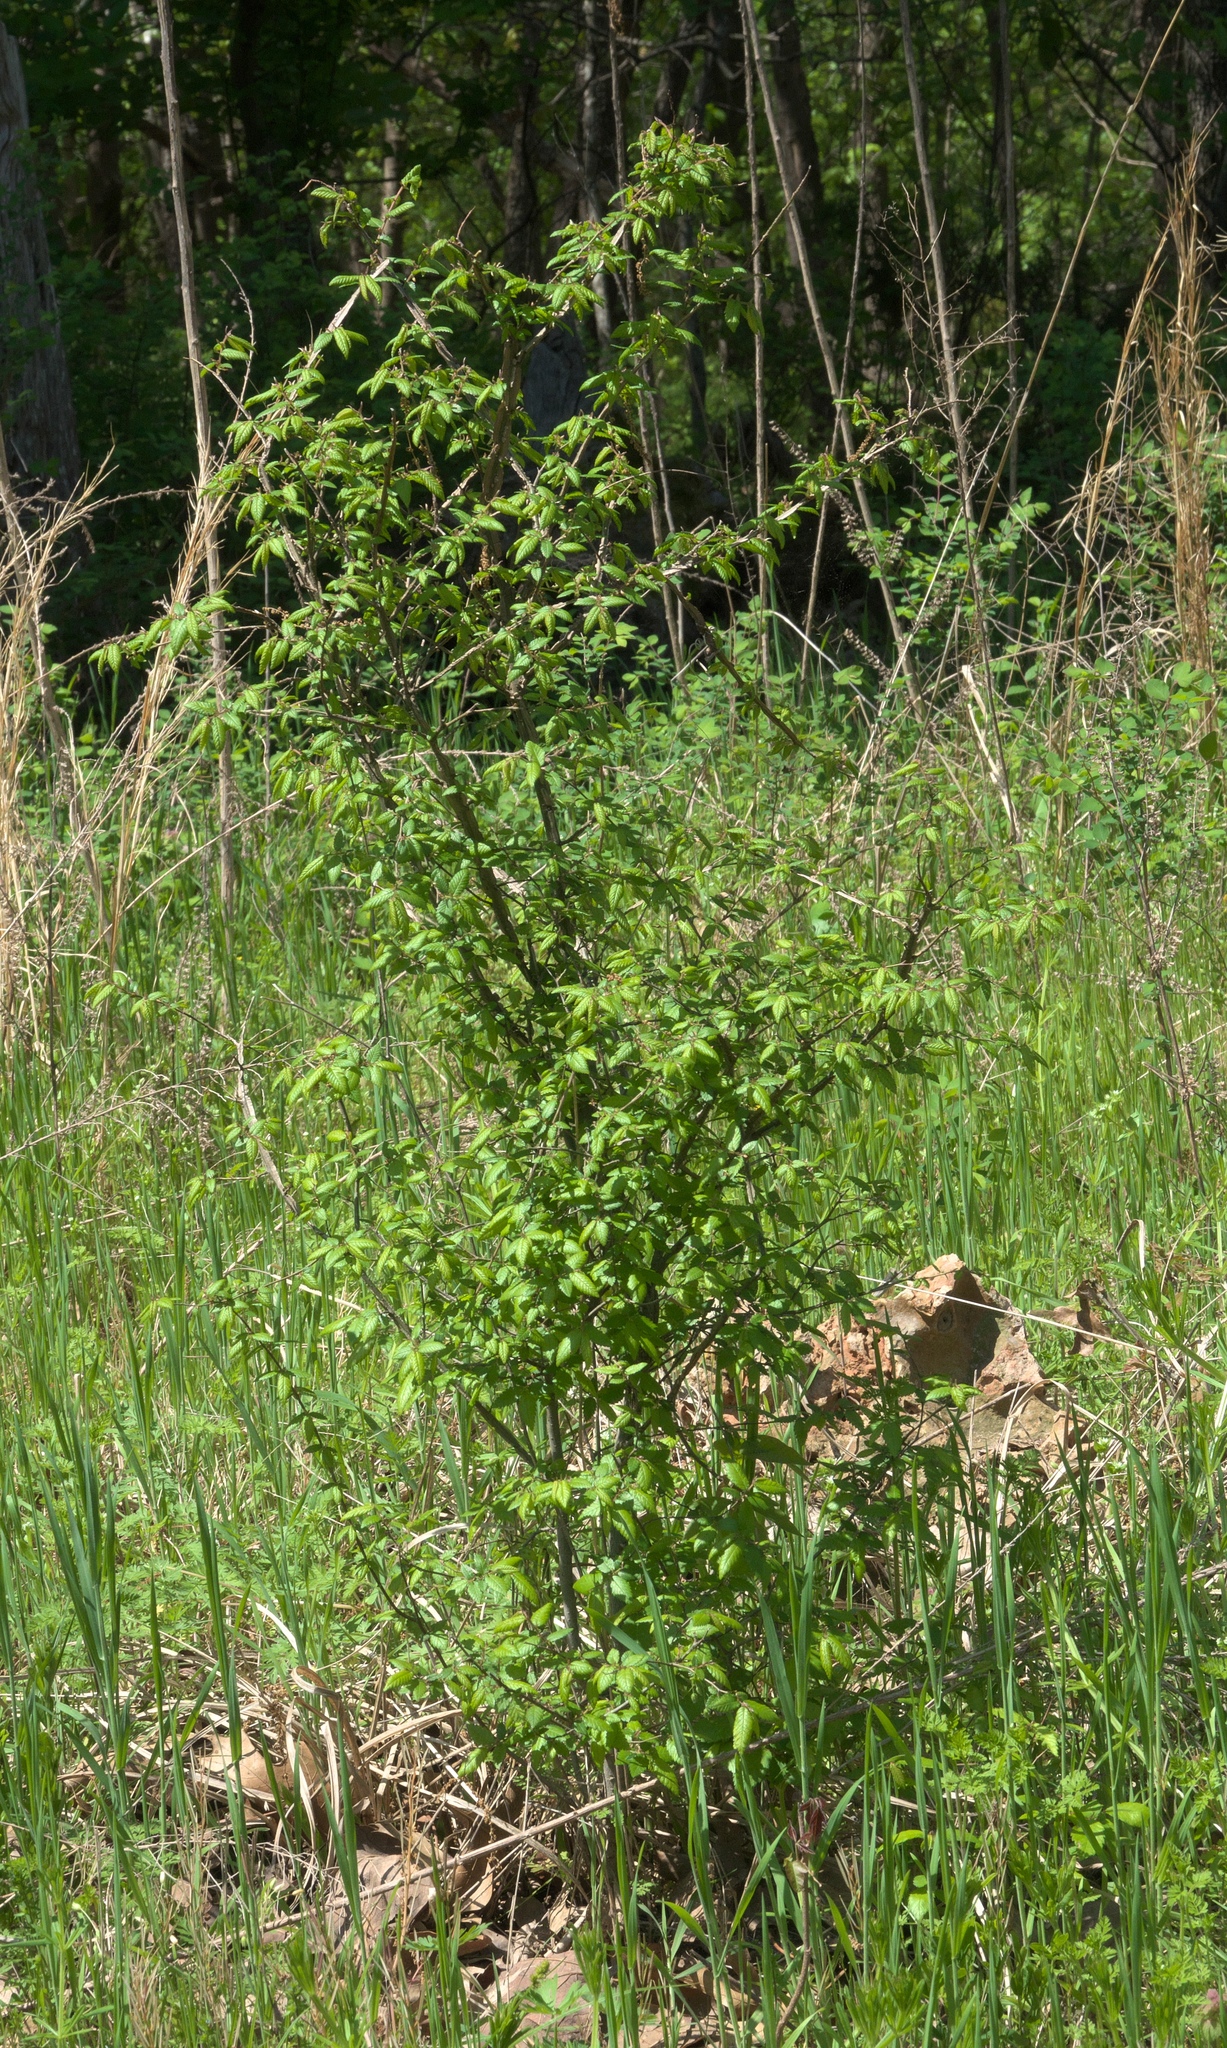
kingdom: Plantae
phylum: Tracheophyta
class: Magnoliopsida
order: Rosales
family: Ulmaceae
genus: Ulmus
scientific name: Ulmus alata
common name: Winged elm
